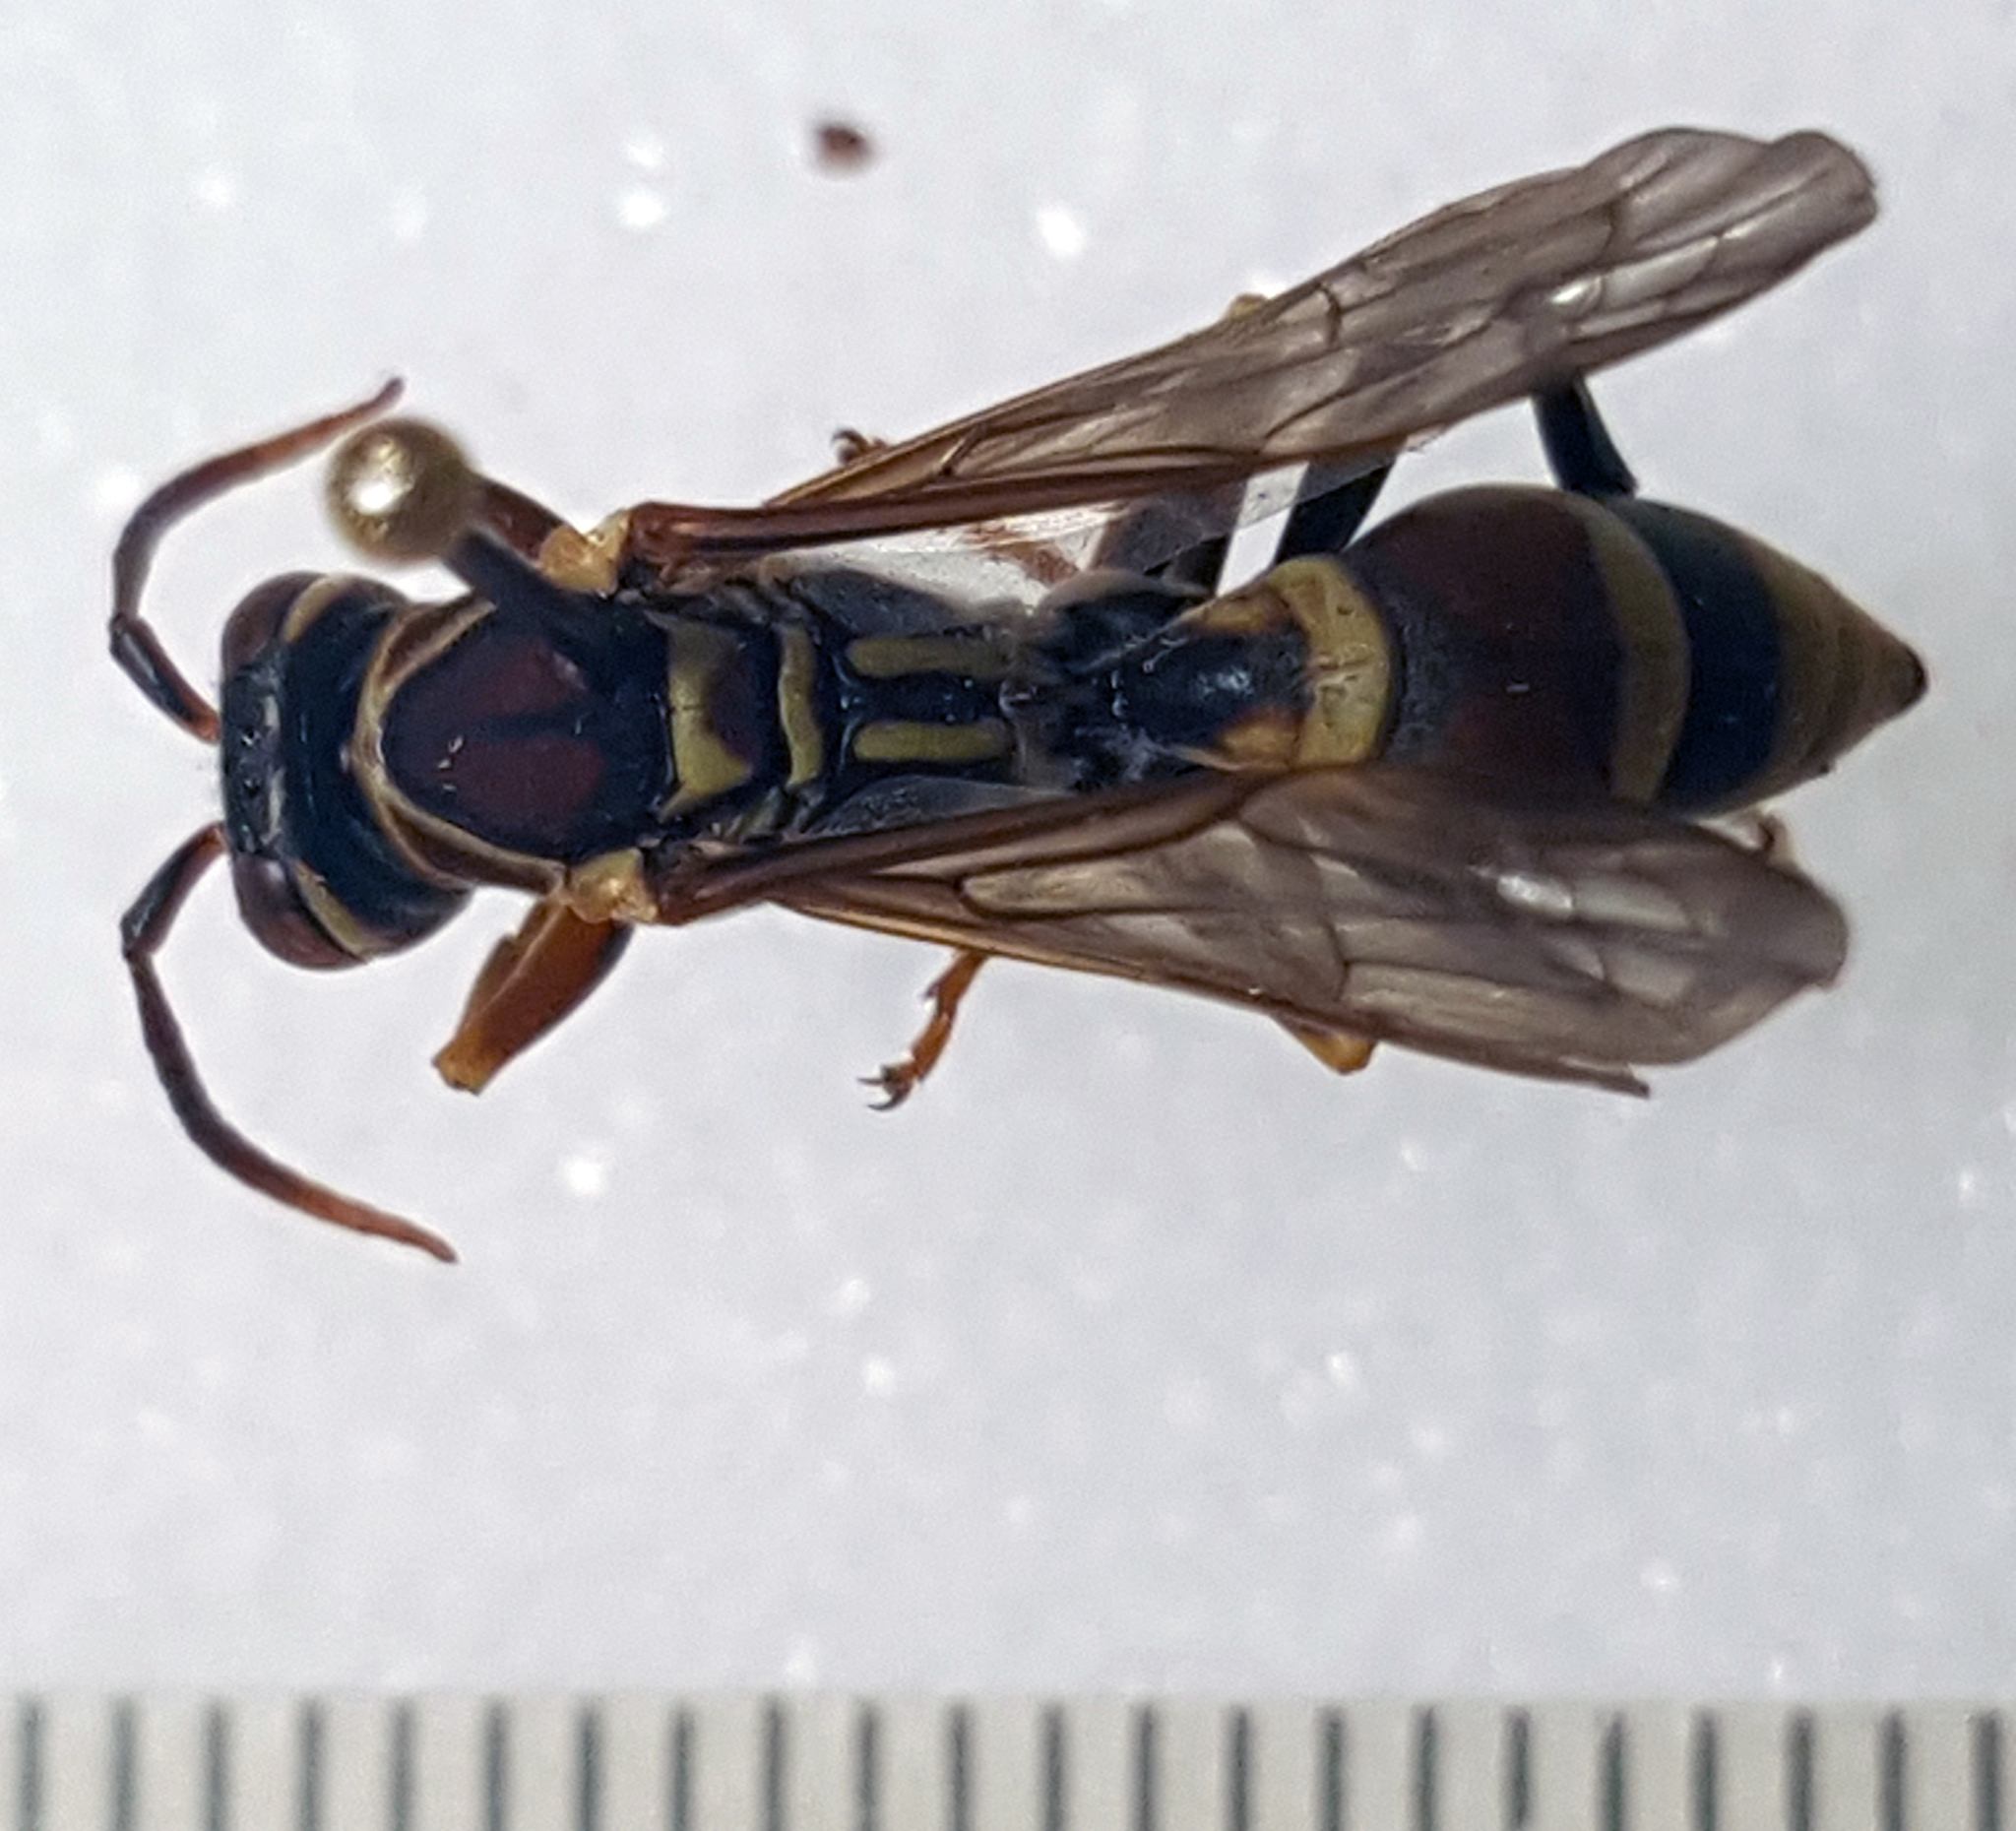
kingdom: Animalia
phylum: Arthropoda
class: Insecta
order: Hymenoptera
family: Eumenidae
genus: Polistes
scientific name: Polistes exclamans
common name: Paper wasp
